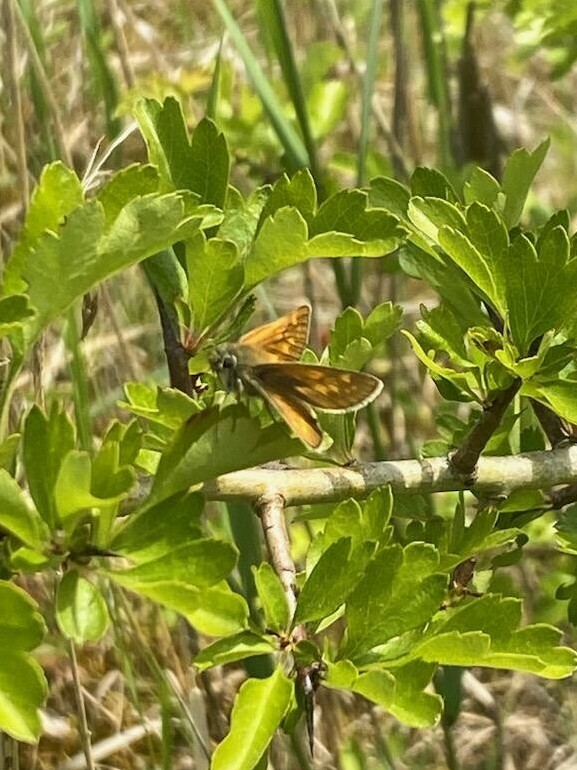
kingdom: Animalia
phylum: Arthropoda
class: Insecta
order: Lepidoptera
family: Hesperiidae
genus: Ochlodes
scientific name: Ochlodes venata
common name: Large skipper
